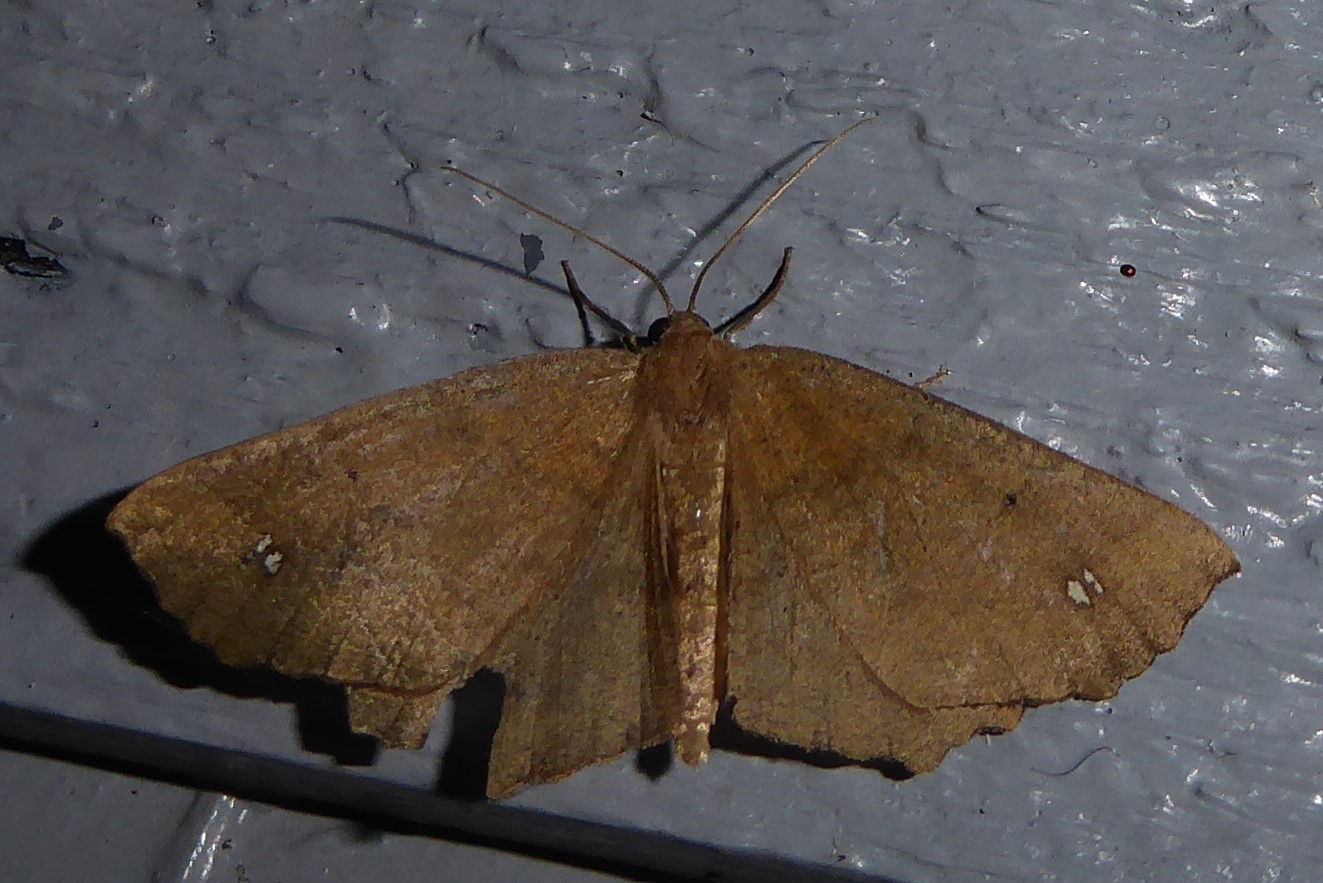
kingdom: Animalia
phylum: Arthropoda
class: Insecta
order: Lepidoptera
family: Geometridae
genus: Xyridacma
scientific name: Xyridacma ustaria
